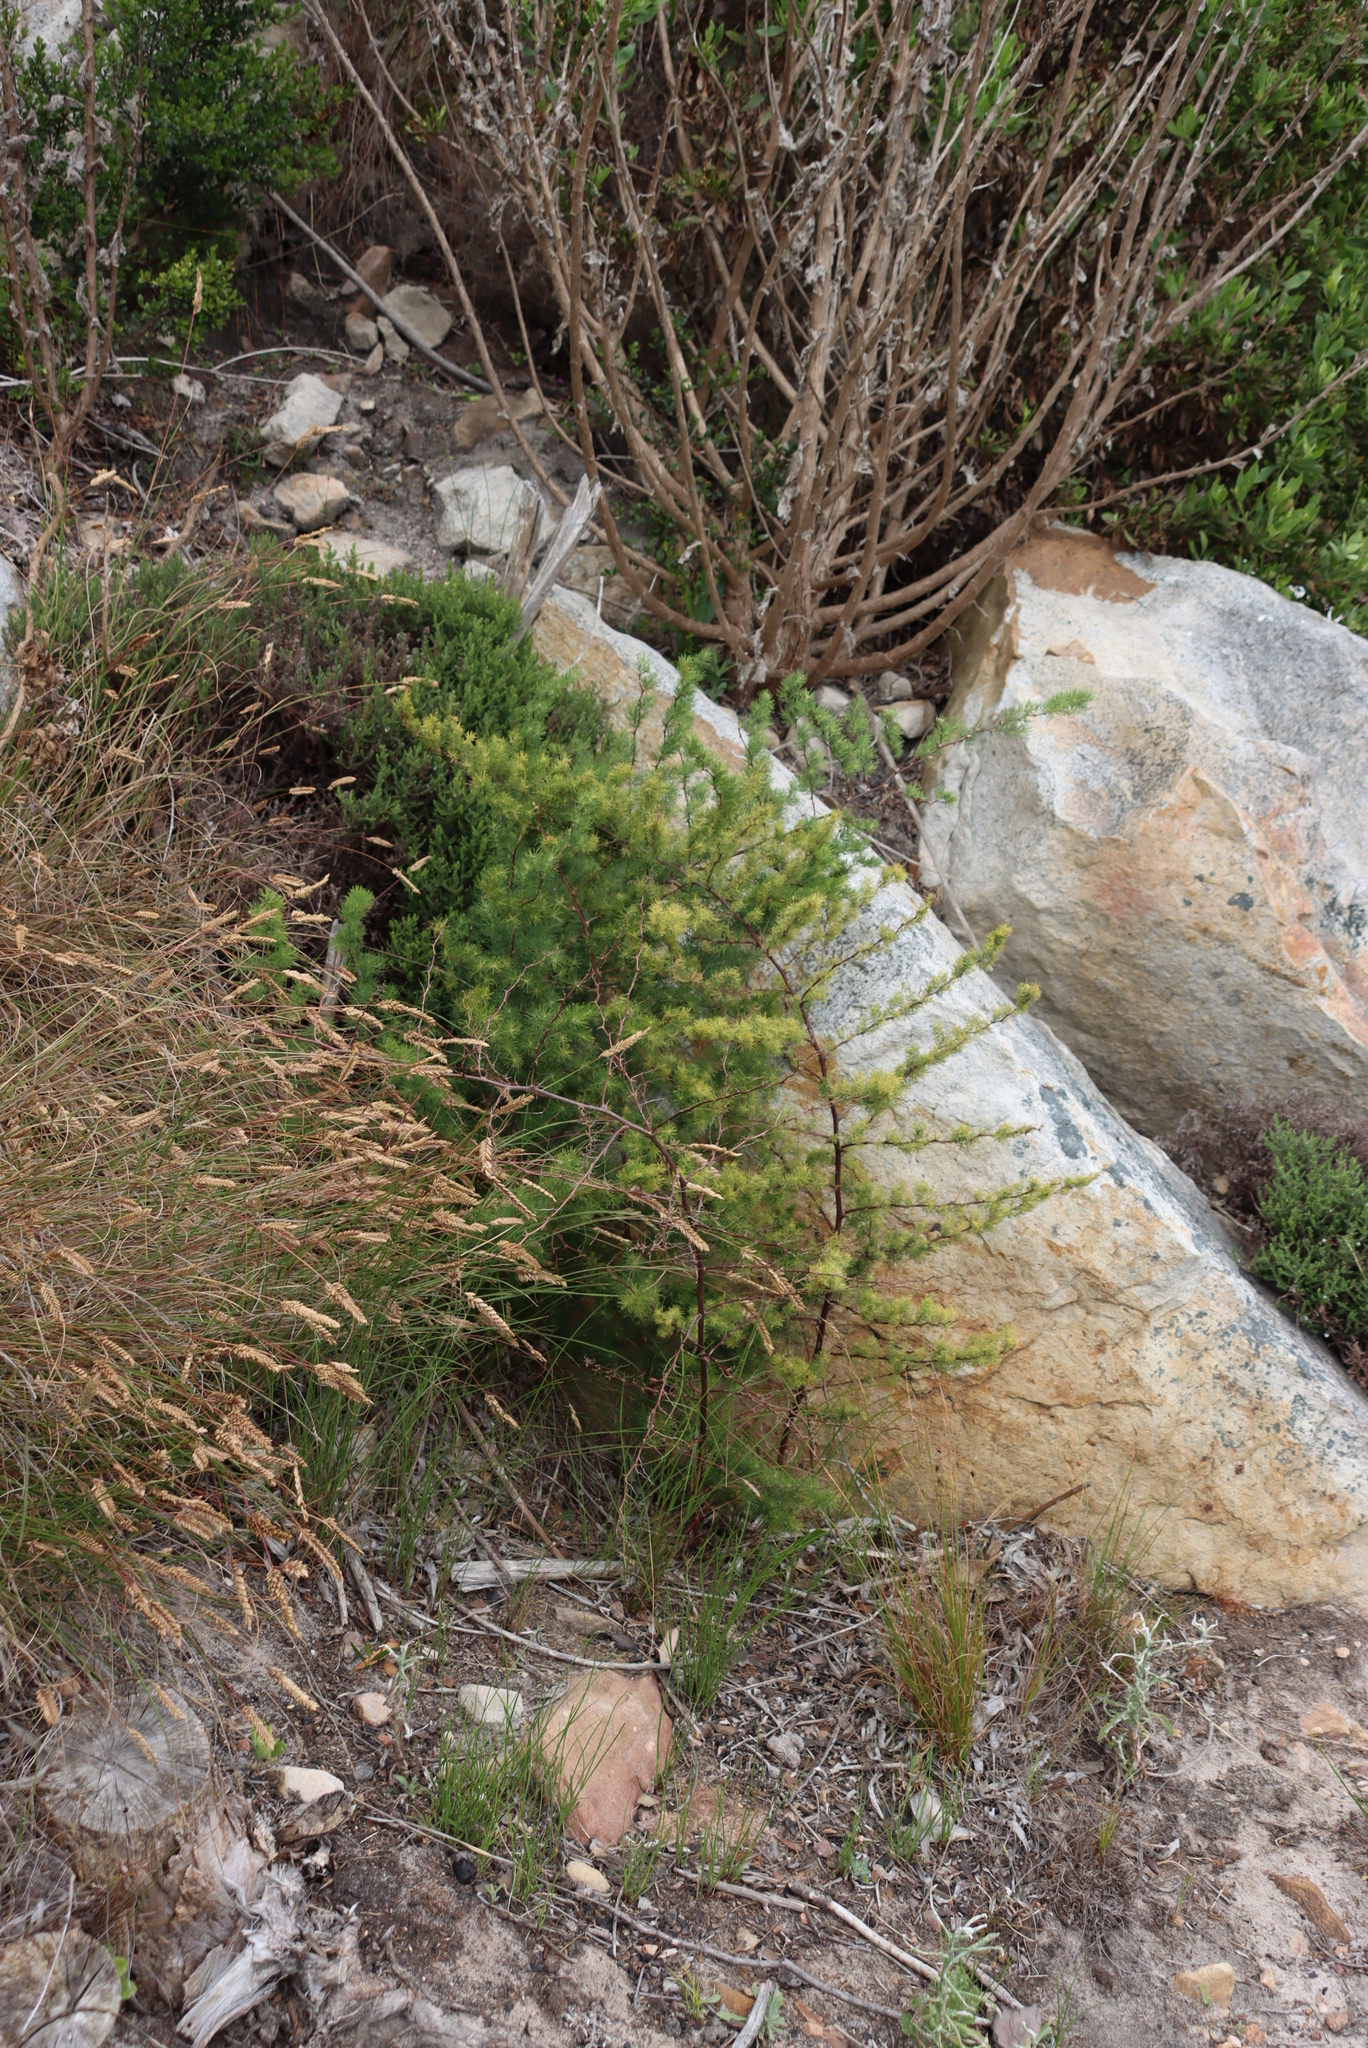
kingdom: Plantae
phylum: Tracheophyta
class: Liliopsida
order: Asparagales
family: Asparagaceae
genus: Asparagus
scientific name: Asparagus rubicundus
